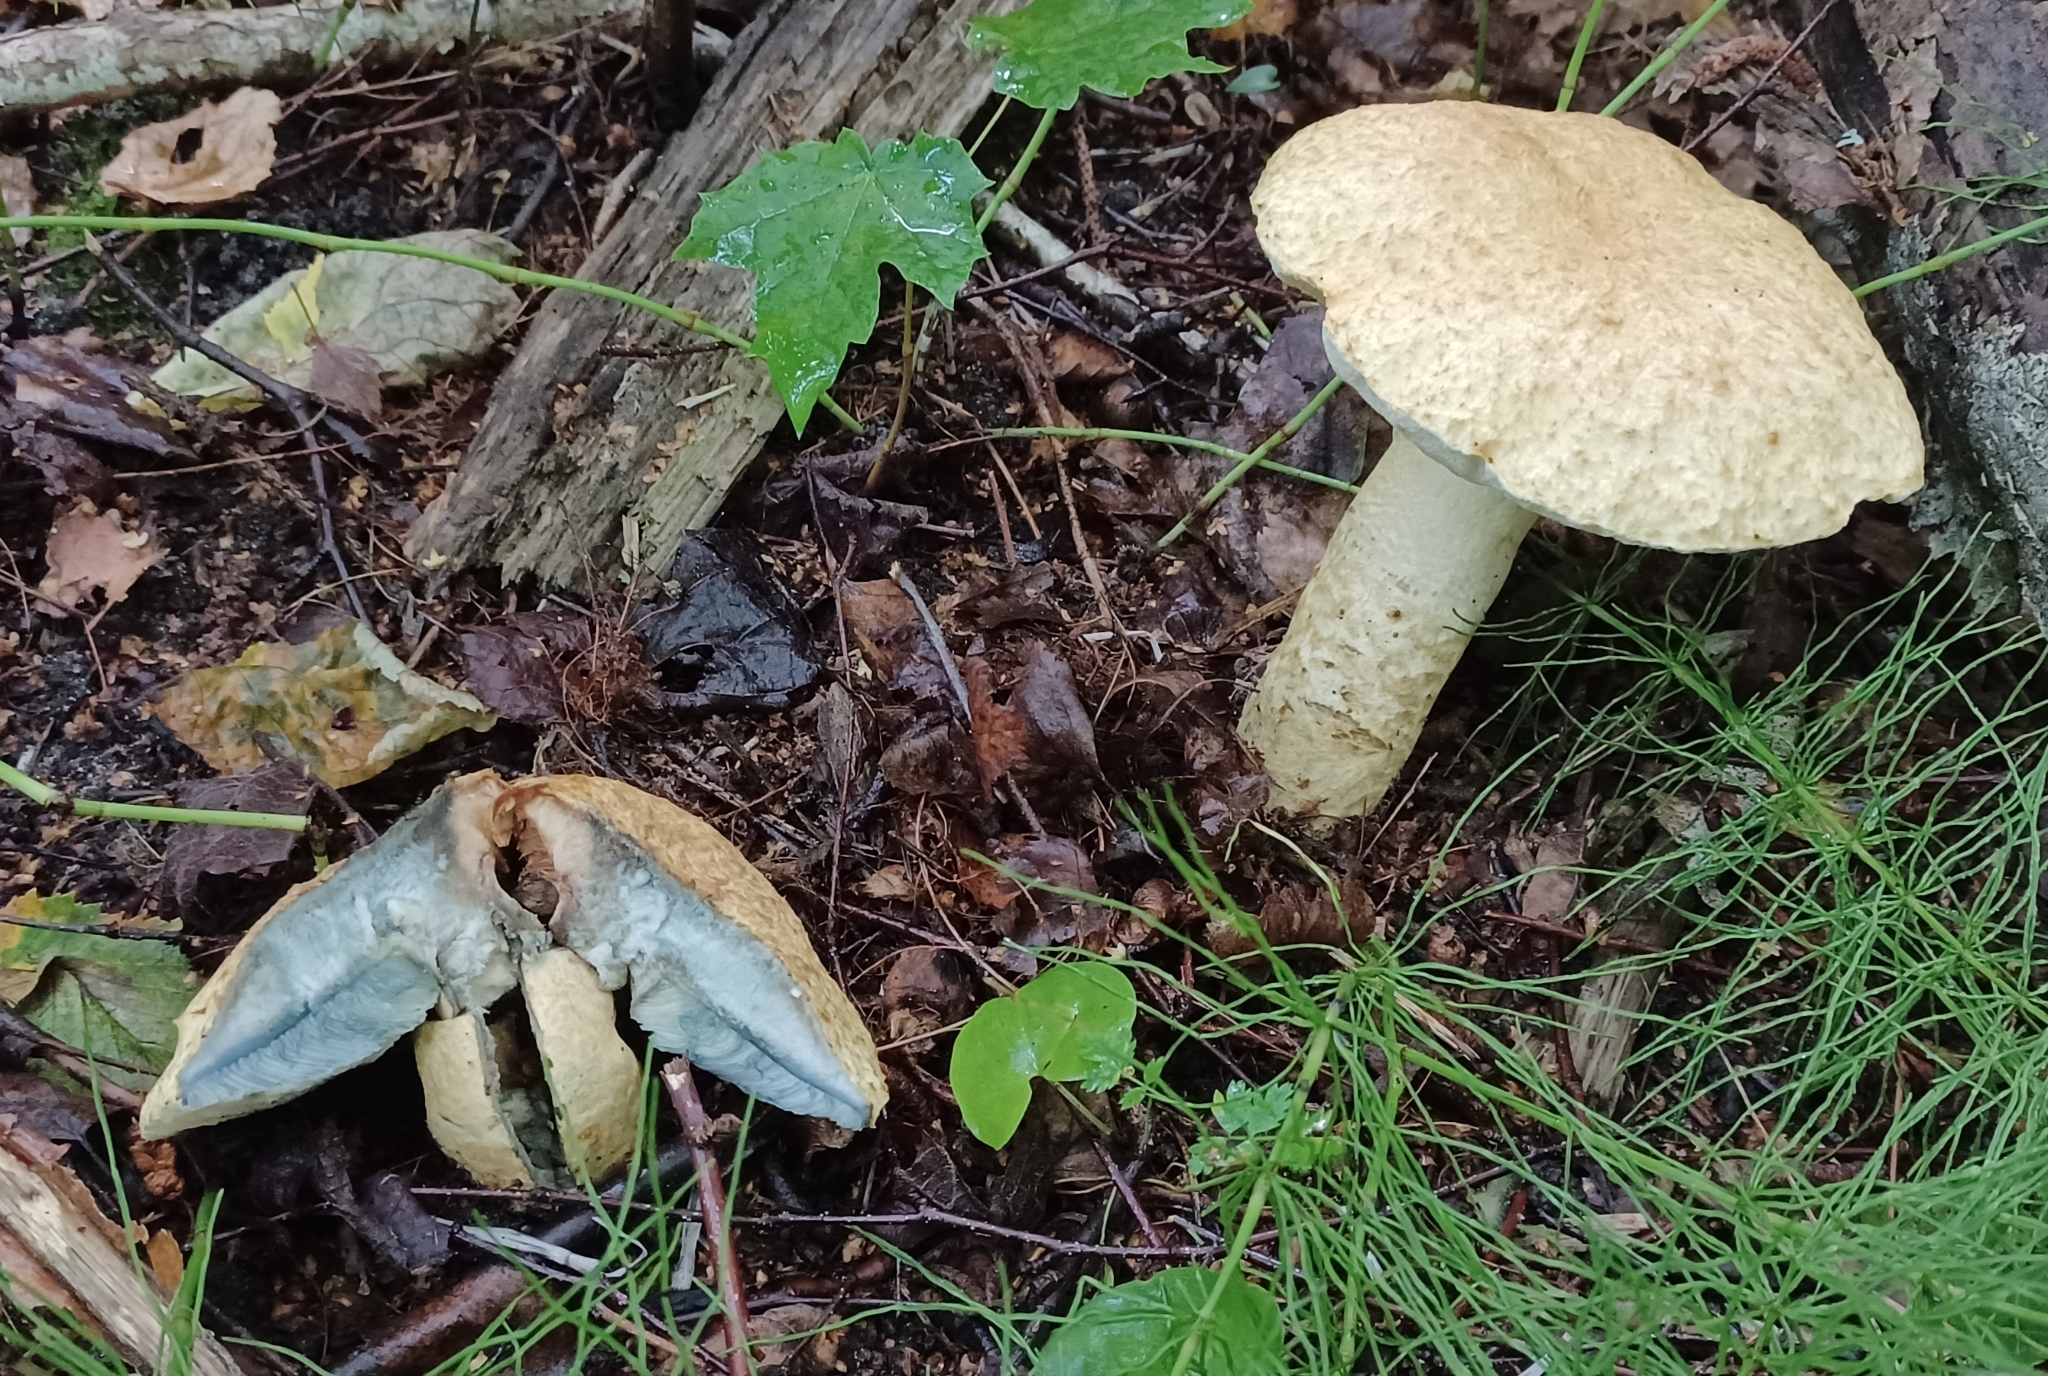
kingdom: Fungi
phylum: Basidiomycota
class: Agaricomycetes
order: Boletales
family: Gyroporaceae
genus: Gyroporus
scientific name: Gyroporus cyanescens
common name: Cornflower bolete
